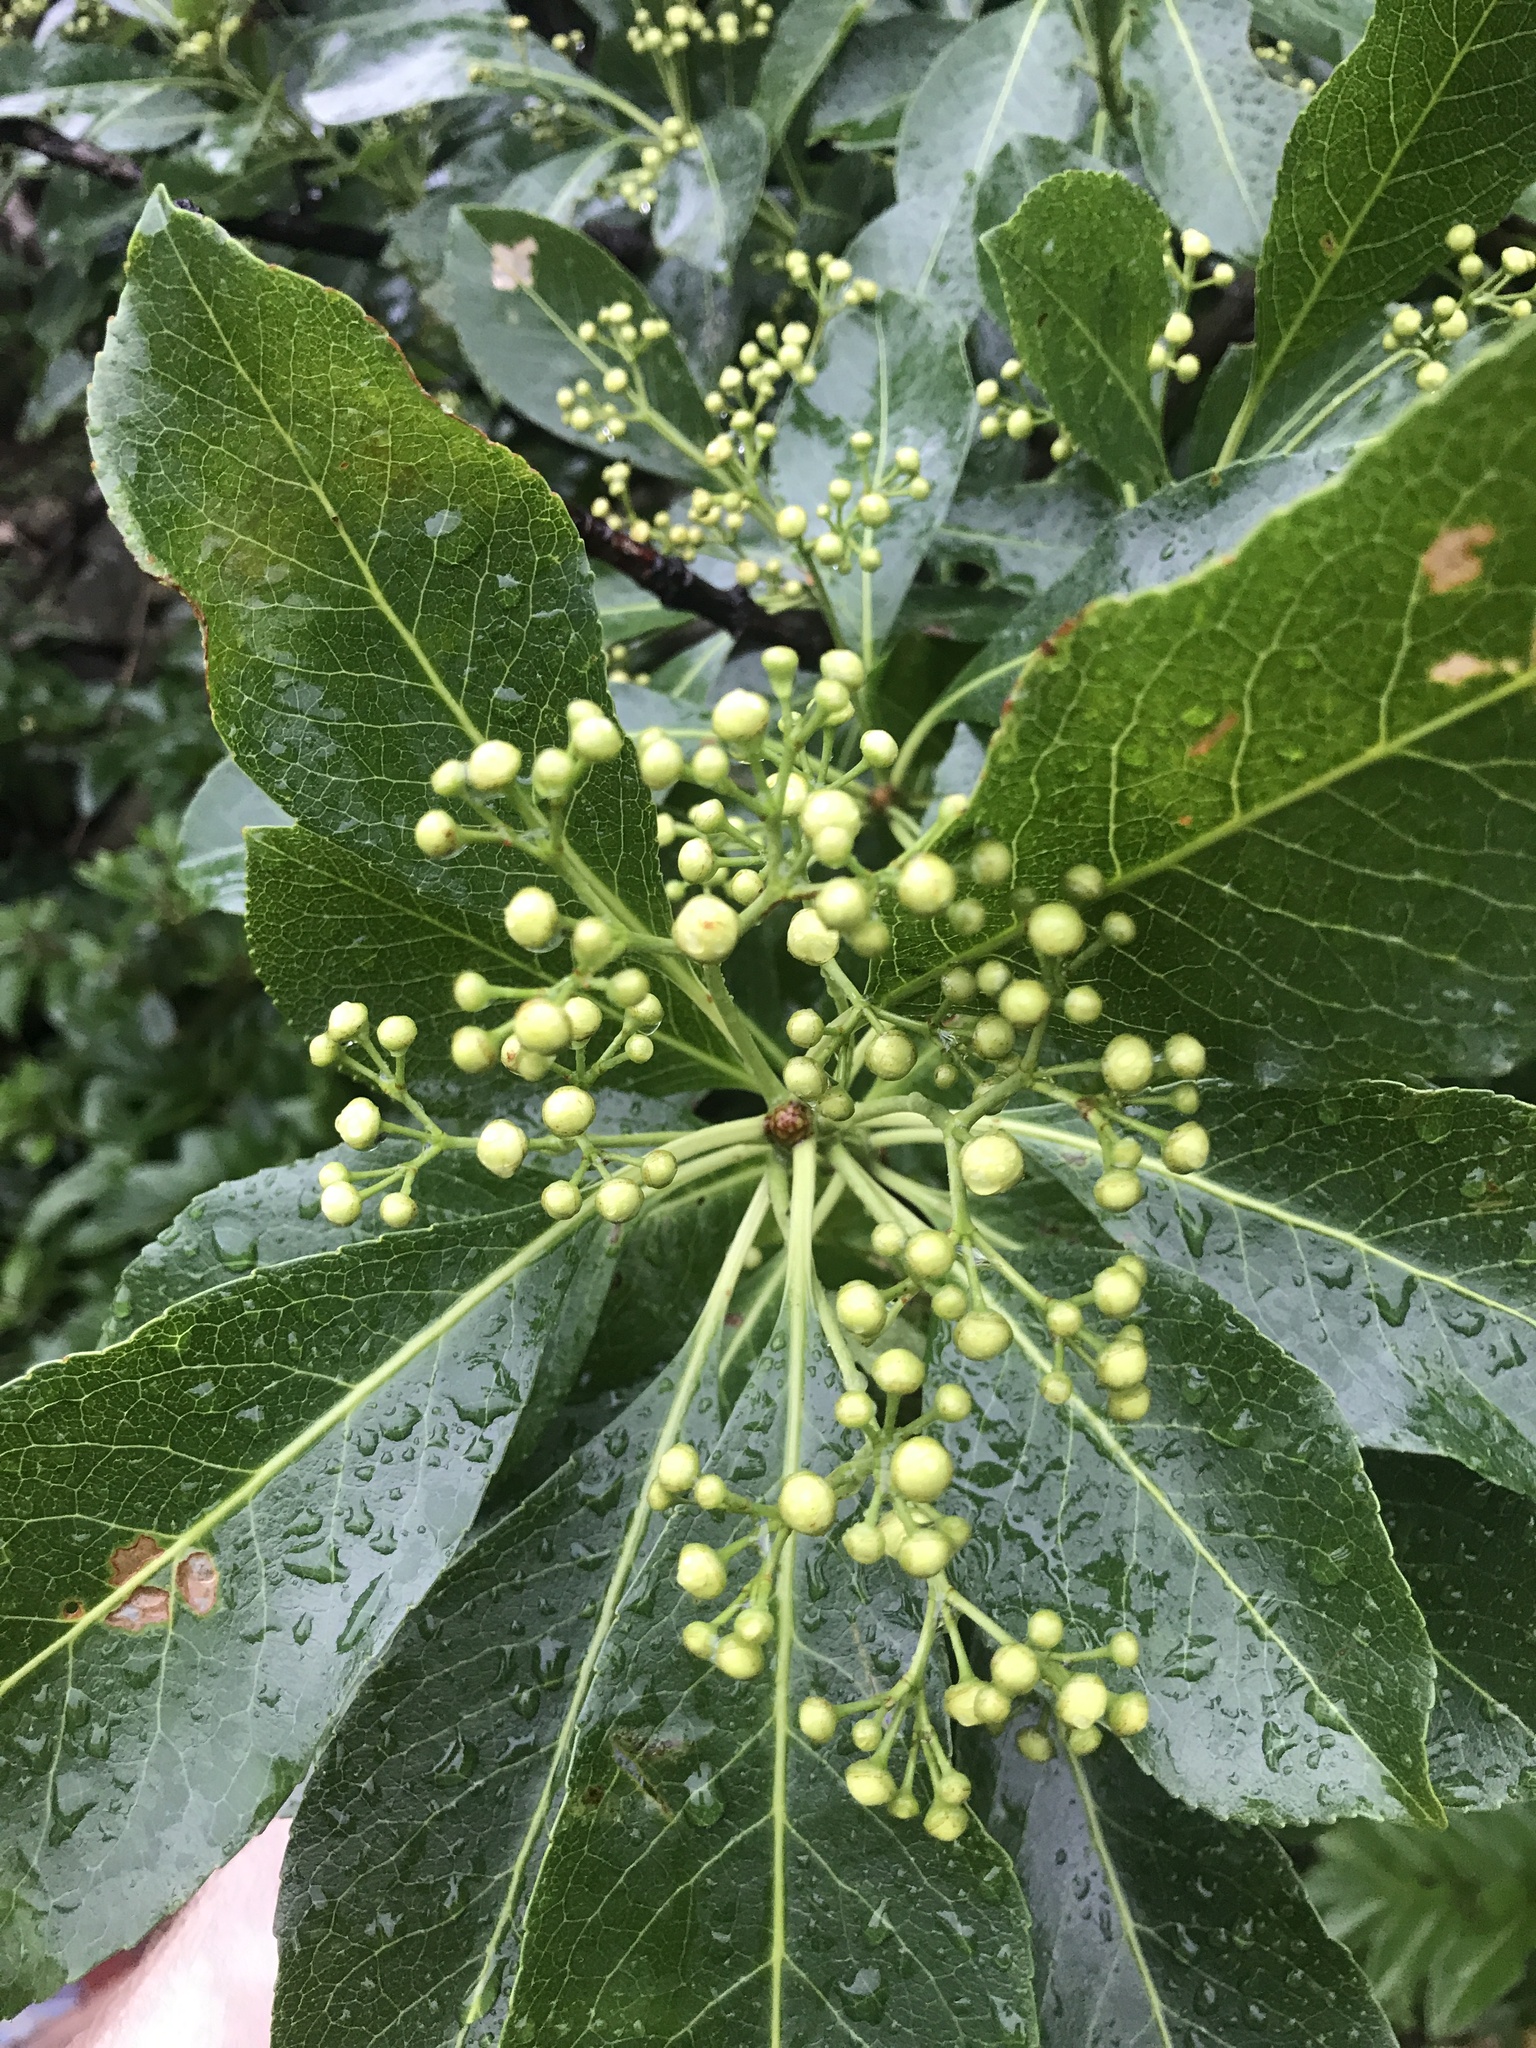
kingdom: Plantae
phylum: Tracheophyta
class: Magnoliopsida
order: Celastrales
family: Celastraceae
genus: Euonymus
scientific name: Euonymus carnosus
